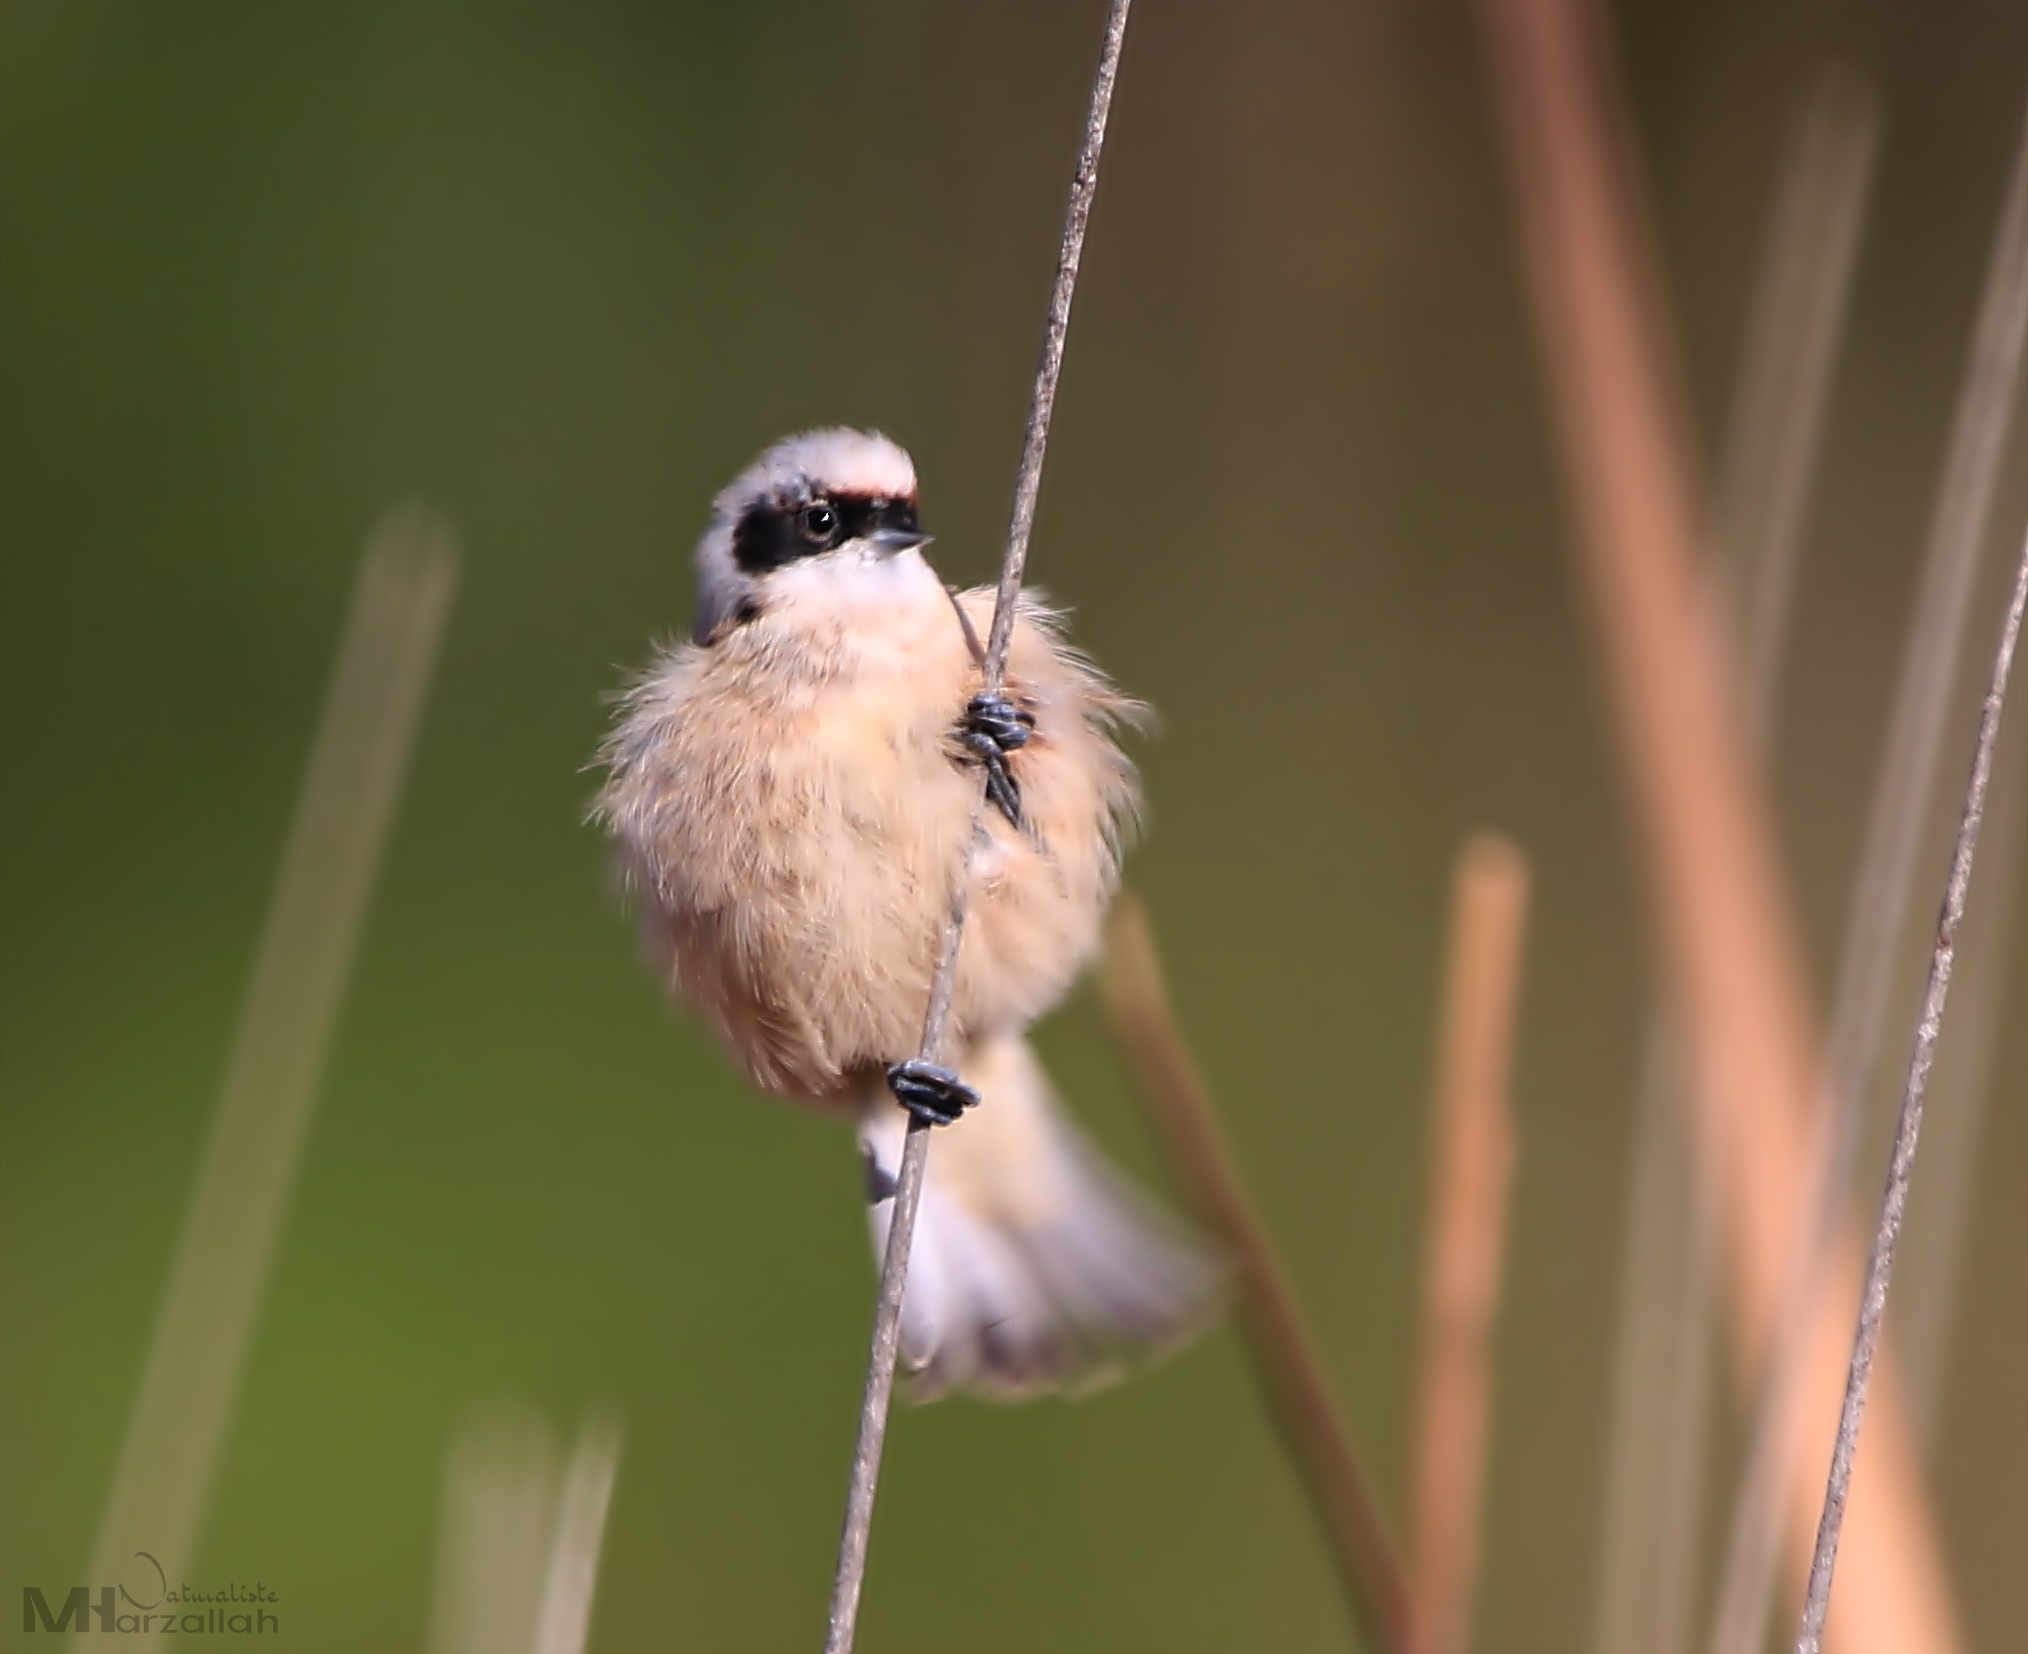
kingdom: Animalia
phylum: Chordata
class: Aves
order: Passeriformes
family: Remizidae
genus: Remiz
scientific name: Remiz pendulinus
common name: Eurasian penduline tit
